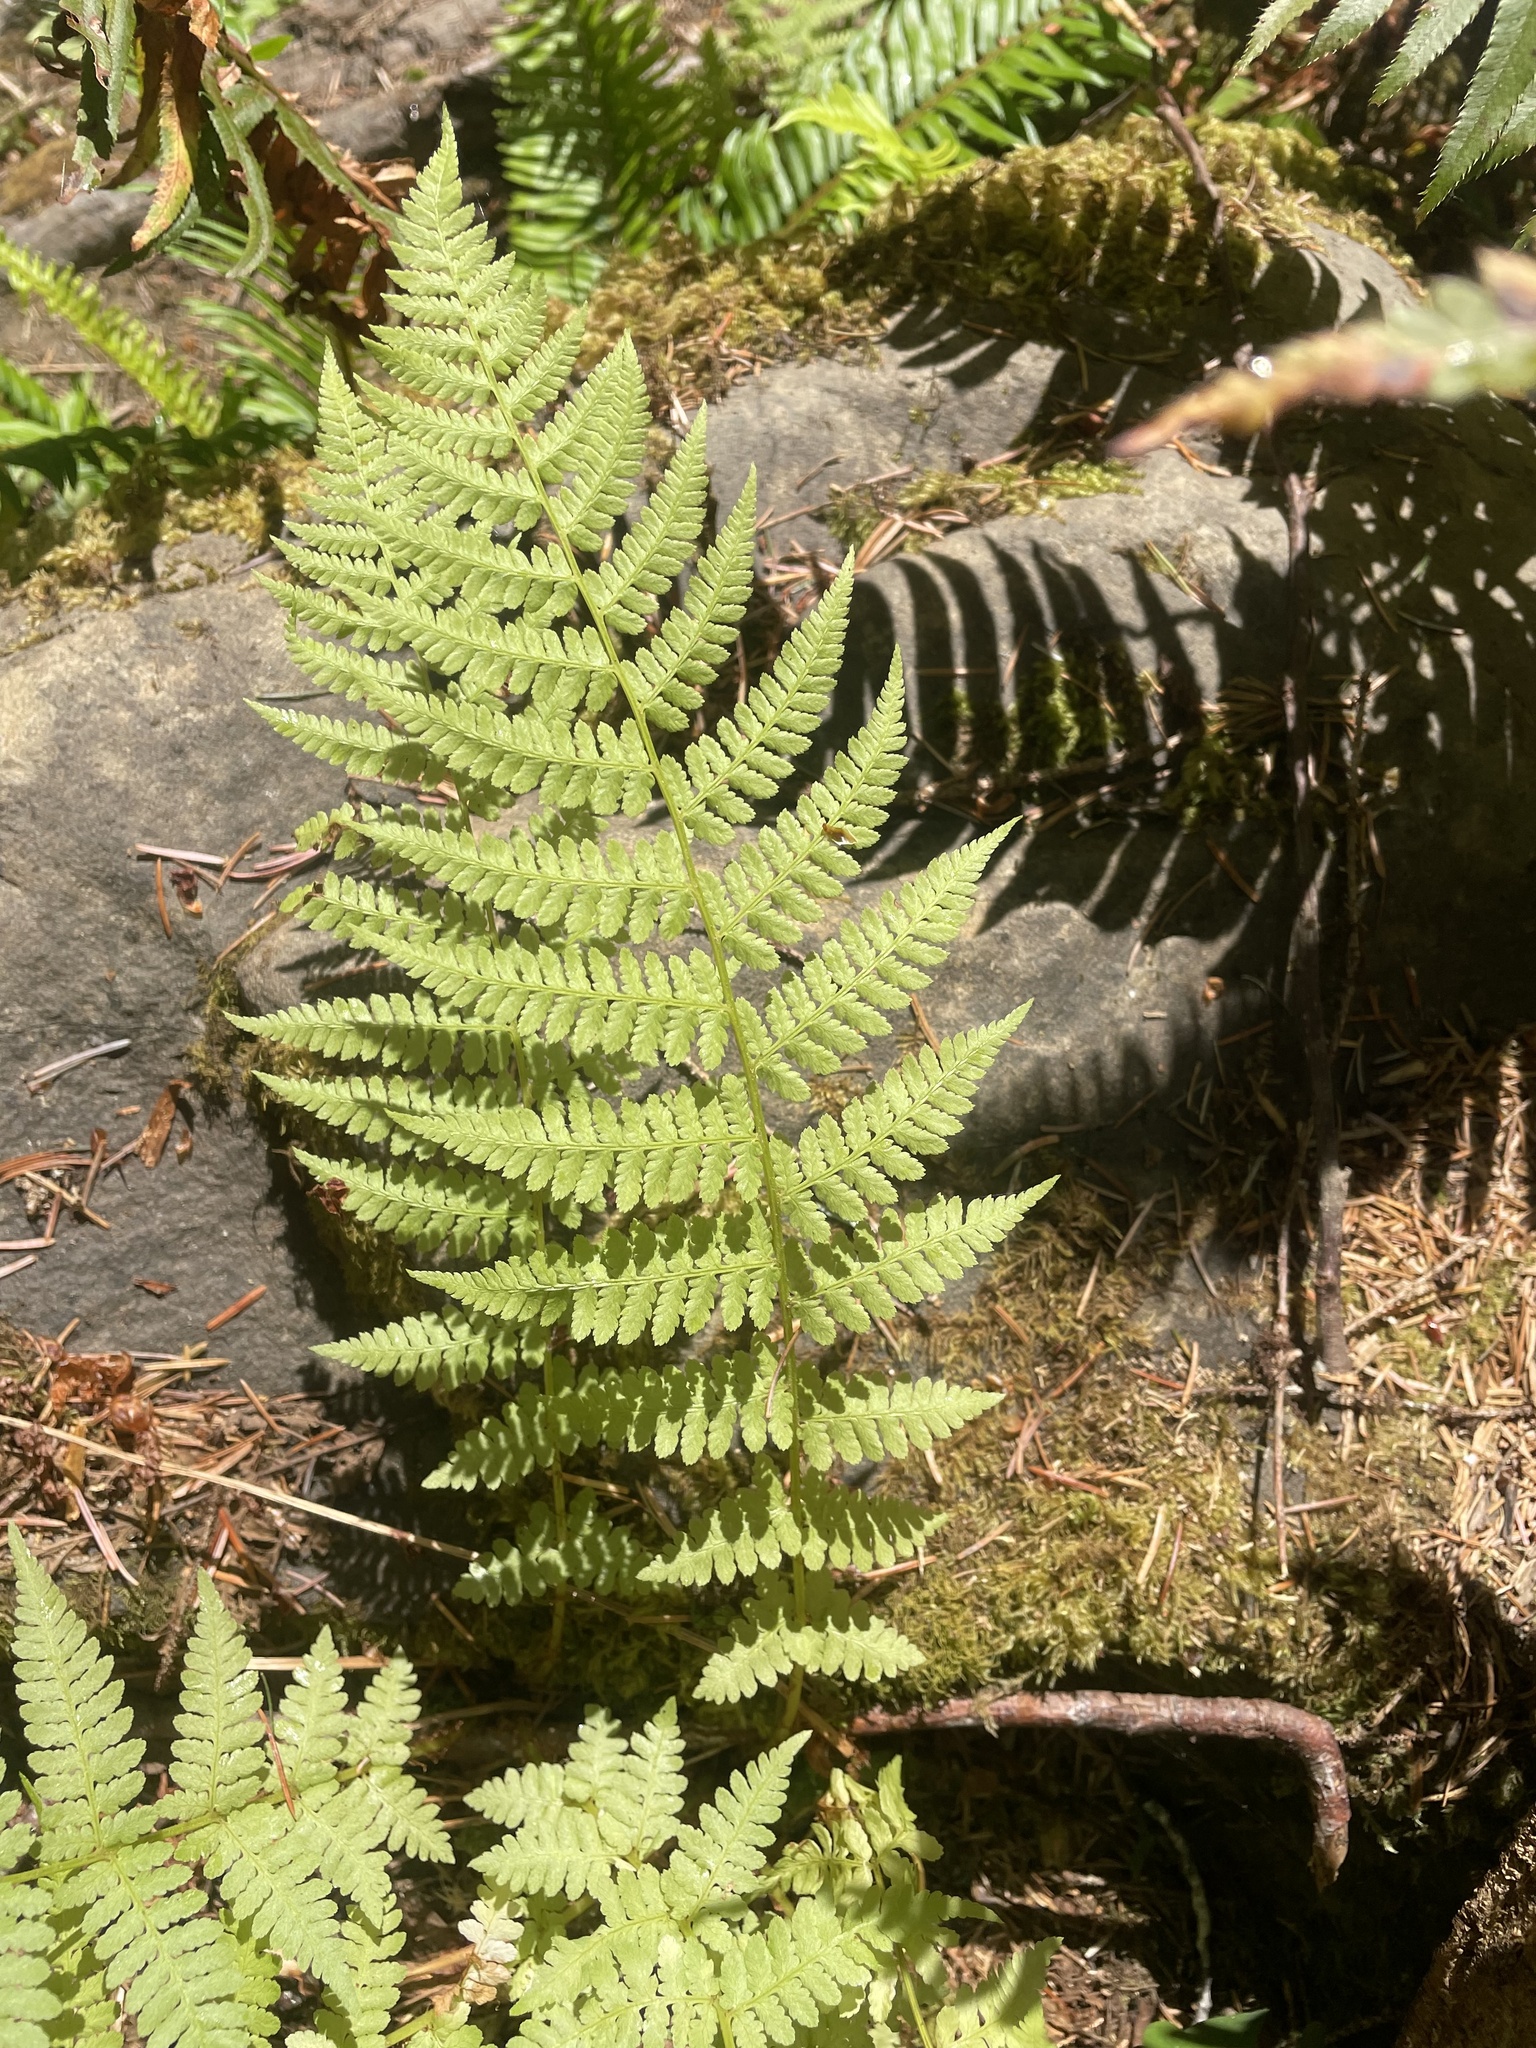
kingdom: Plantae
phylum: Tracheophyta
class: Polypodiopsida
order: Polypodiales
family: Athyriaceae
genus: Athyrium
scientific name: Athyrium filix-femina
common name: Lady fern
